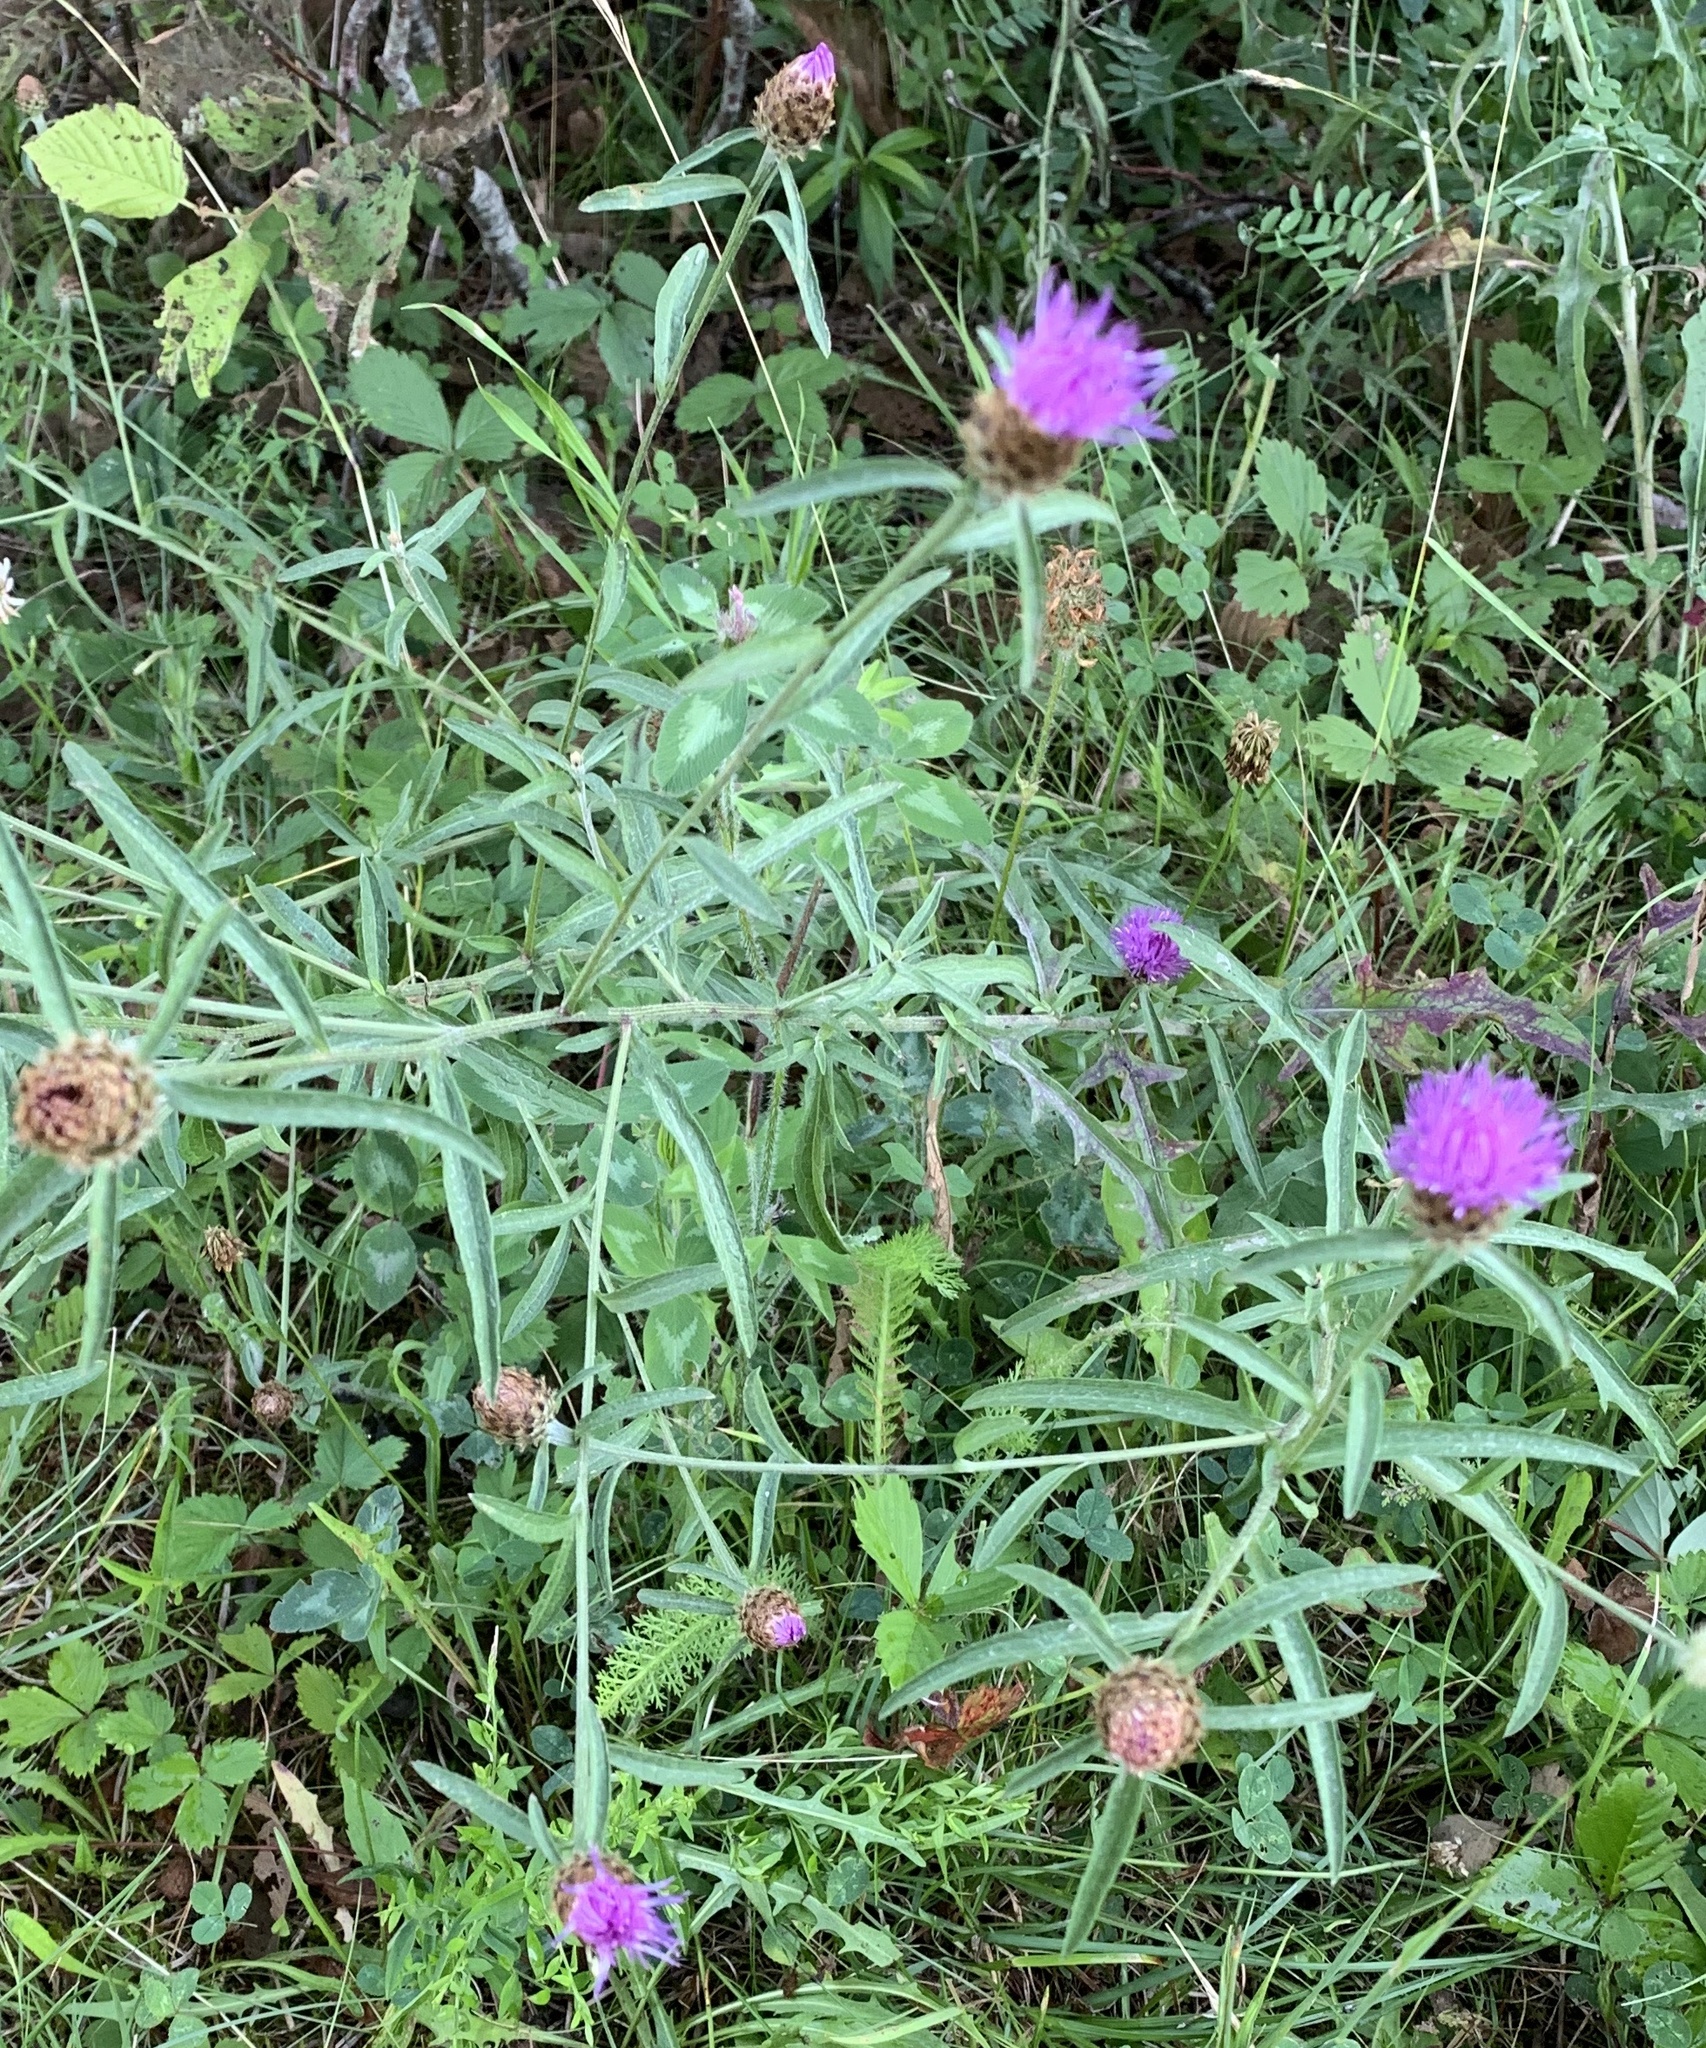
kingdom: Plantae
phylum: Tracheophyta
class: Magnoliopsida
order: Asterales
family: Asteraceae
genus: Centaurea
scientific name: Centaurea nigra
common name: Lesser knapweed
